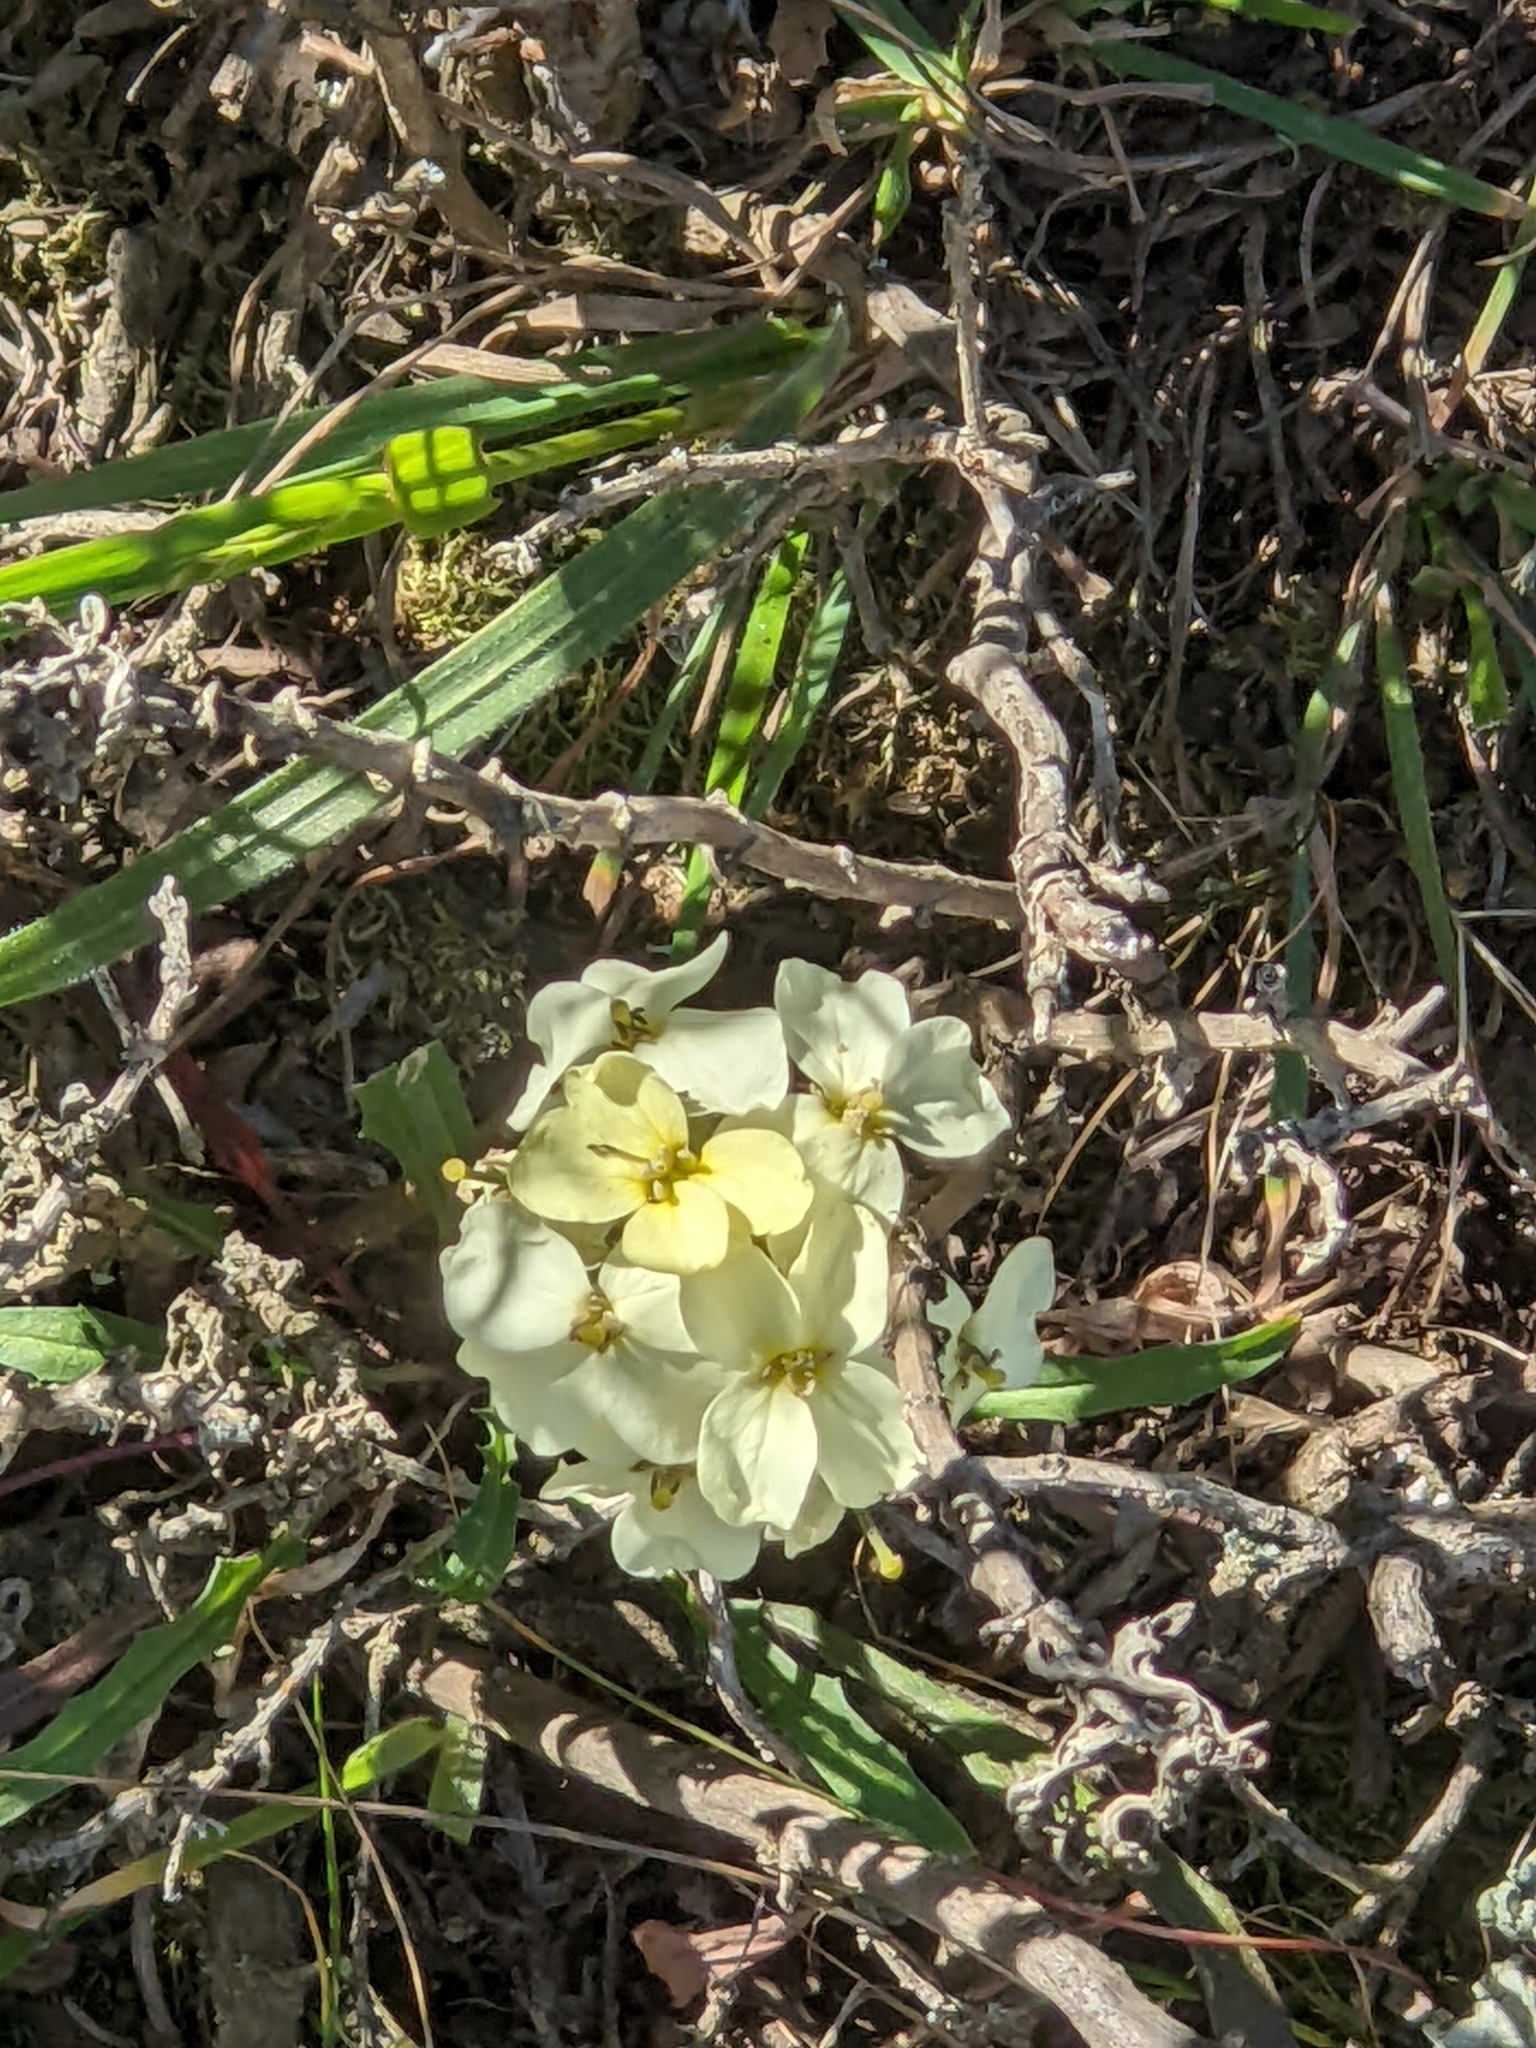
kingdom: Plantae
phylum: Tracheophyta
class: Magnoliopsida
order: Brassicales
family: Brassicaceae
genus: Erysimum
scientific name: Erysimum franciscanum
